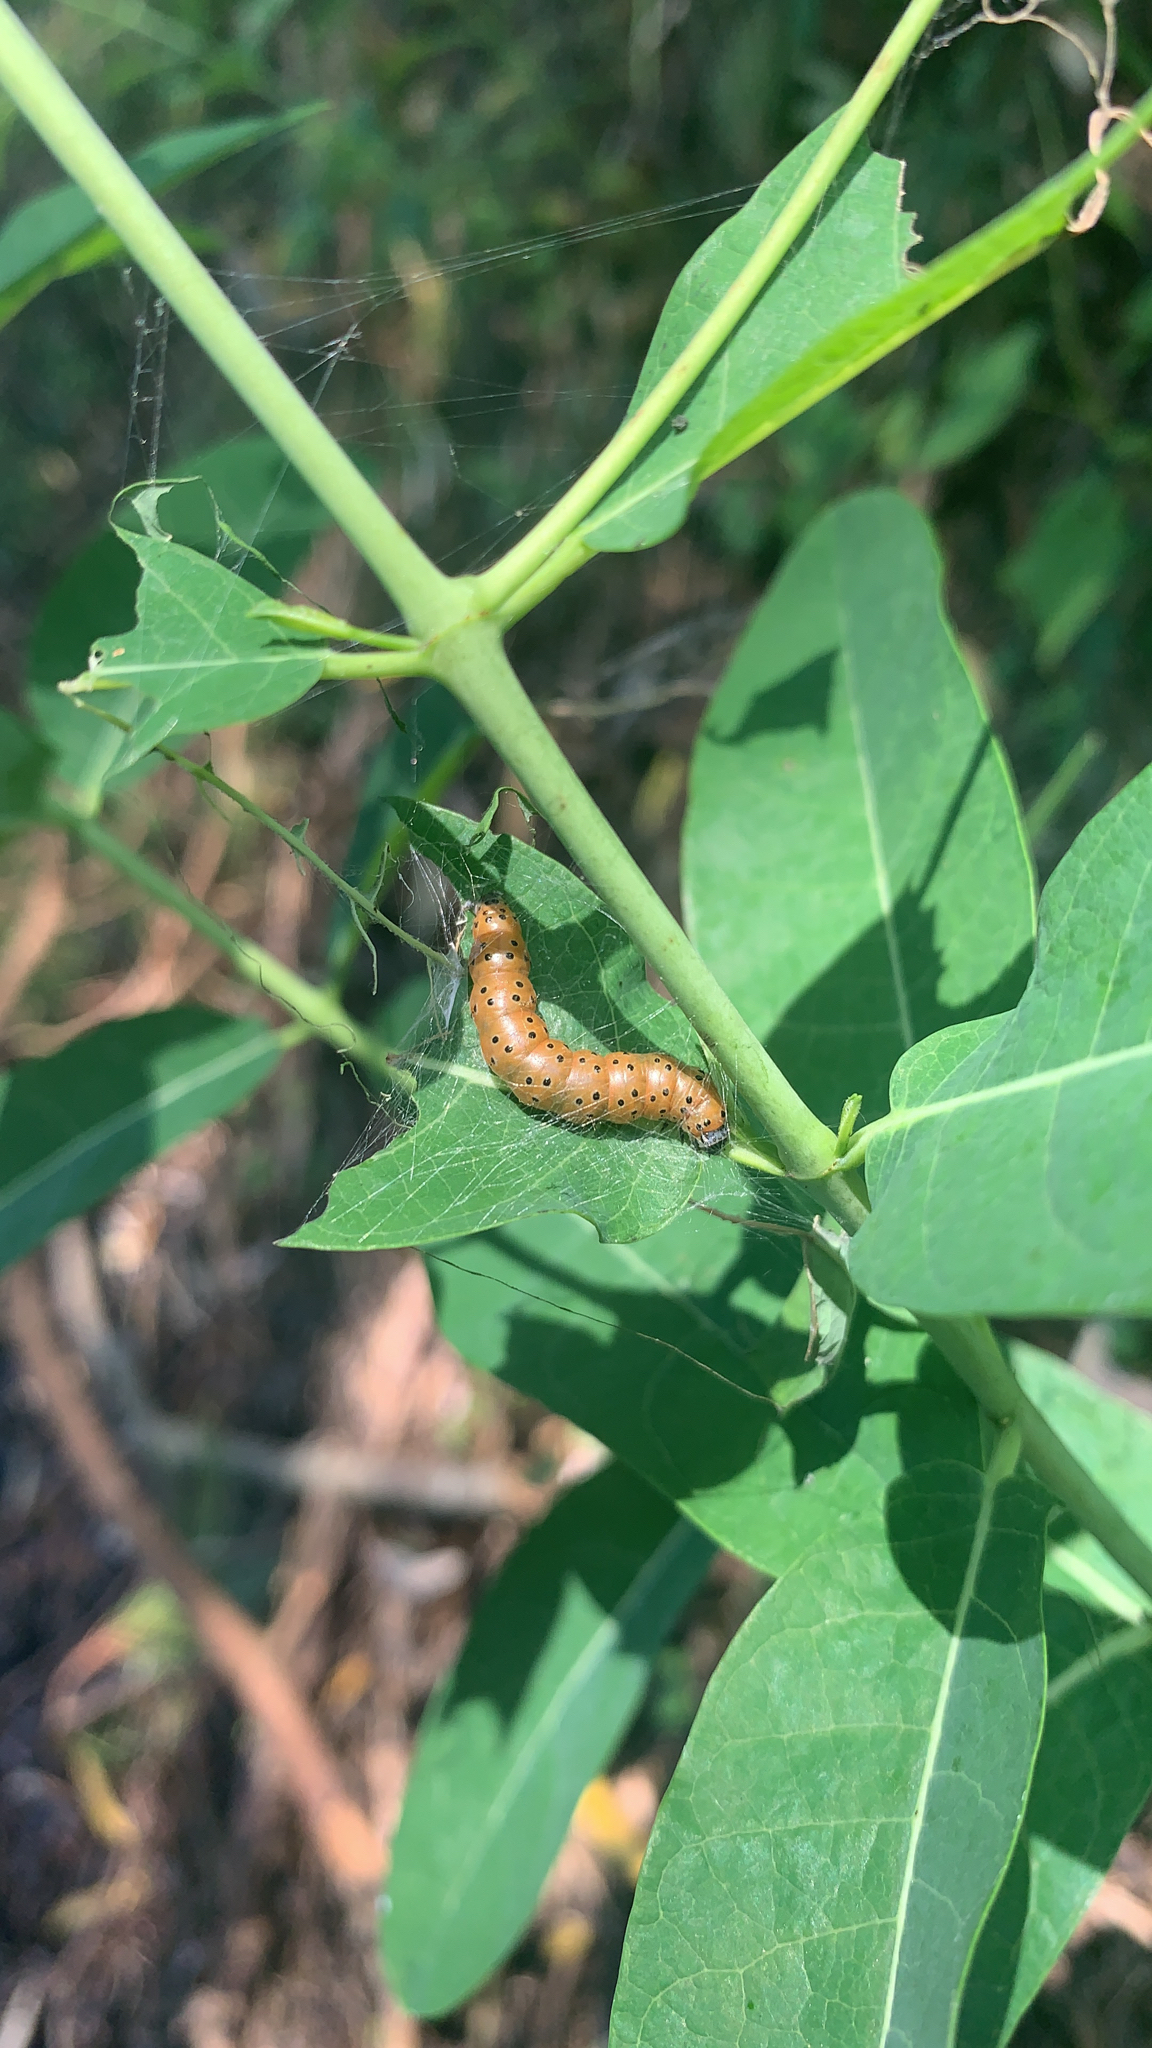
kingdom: Animalia
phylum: Arthropoda
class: Insecta
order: Lepidoptera
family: Crambidae
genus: Saucrobotys
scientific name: Saucrobotys futilalis
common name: Dogbane saucrobotys moth
